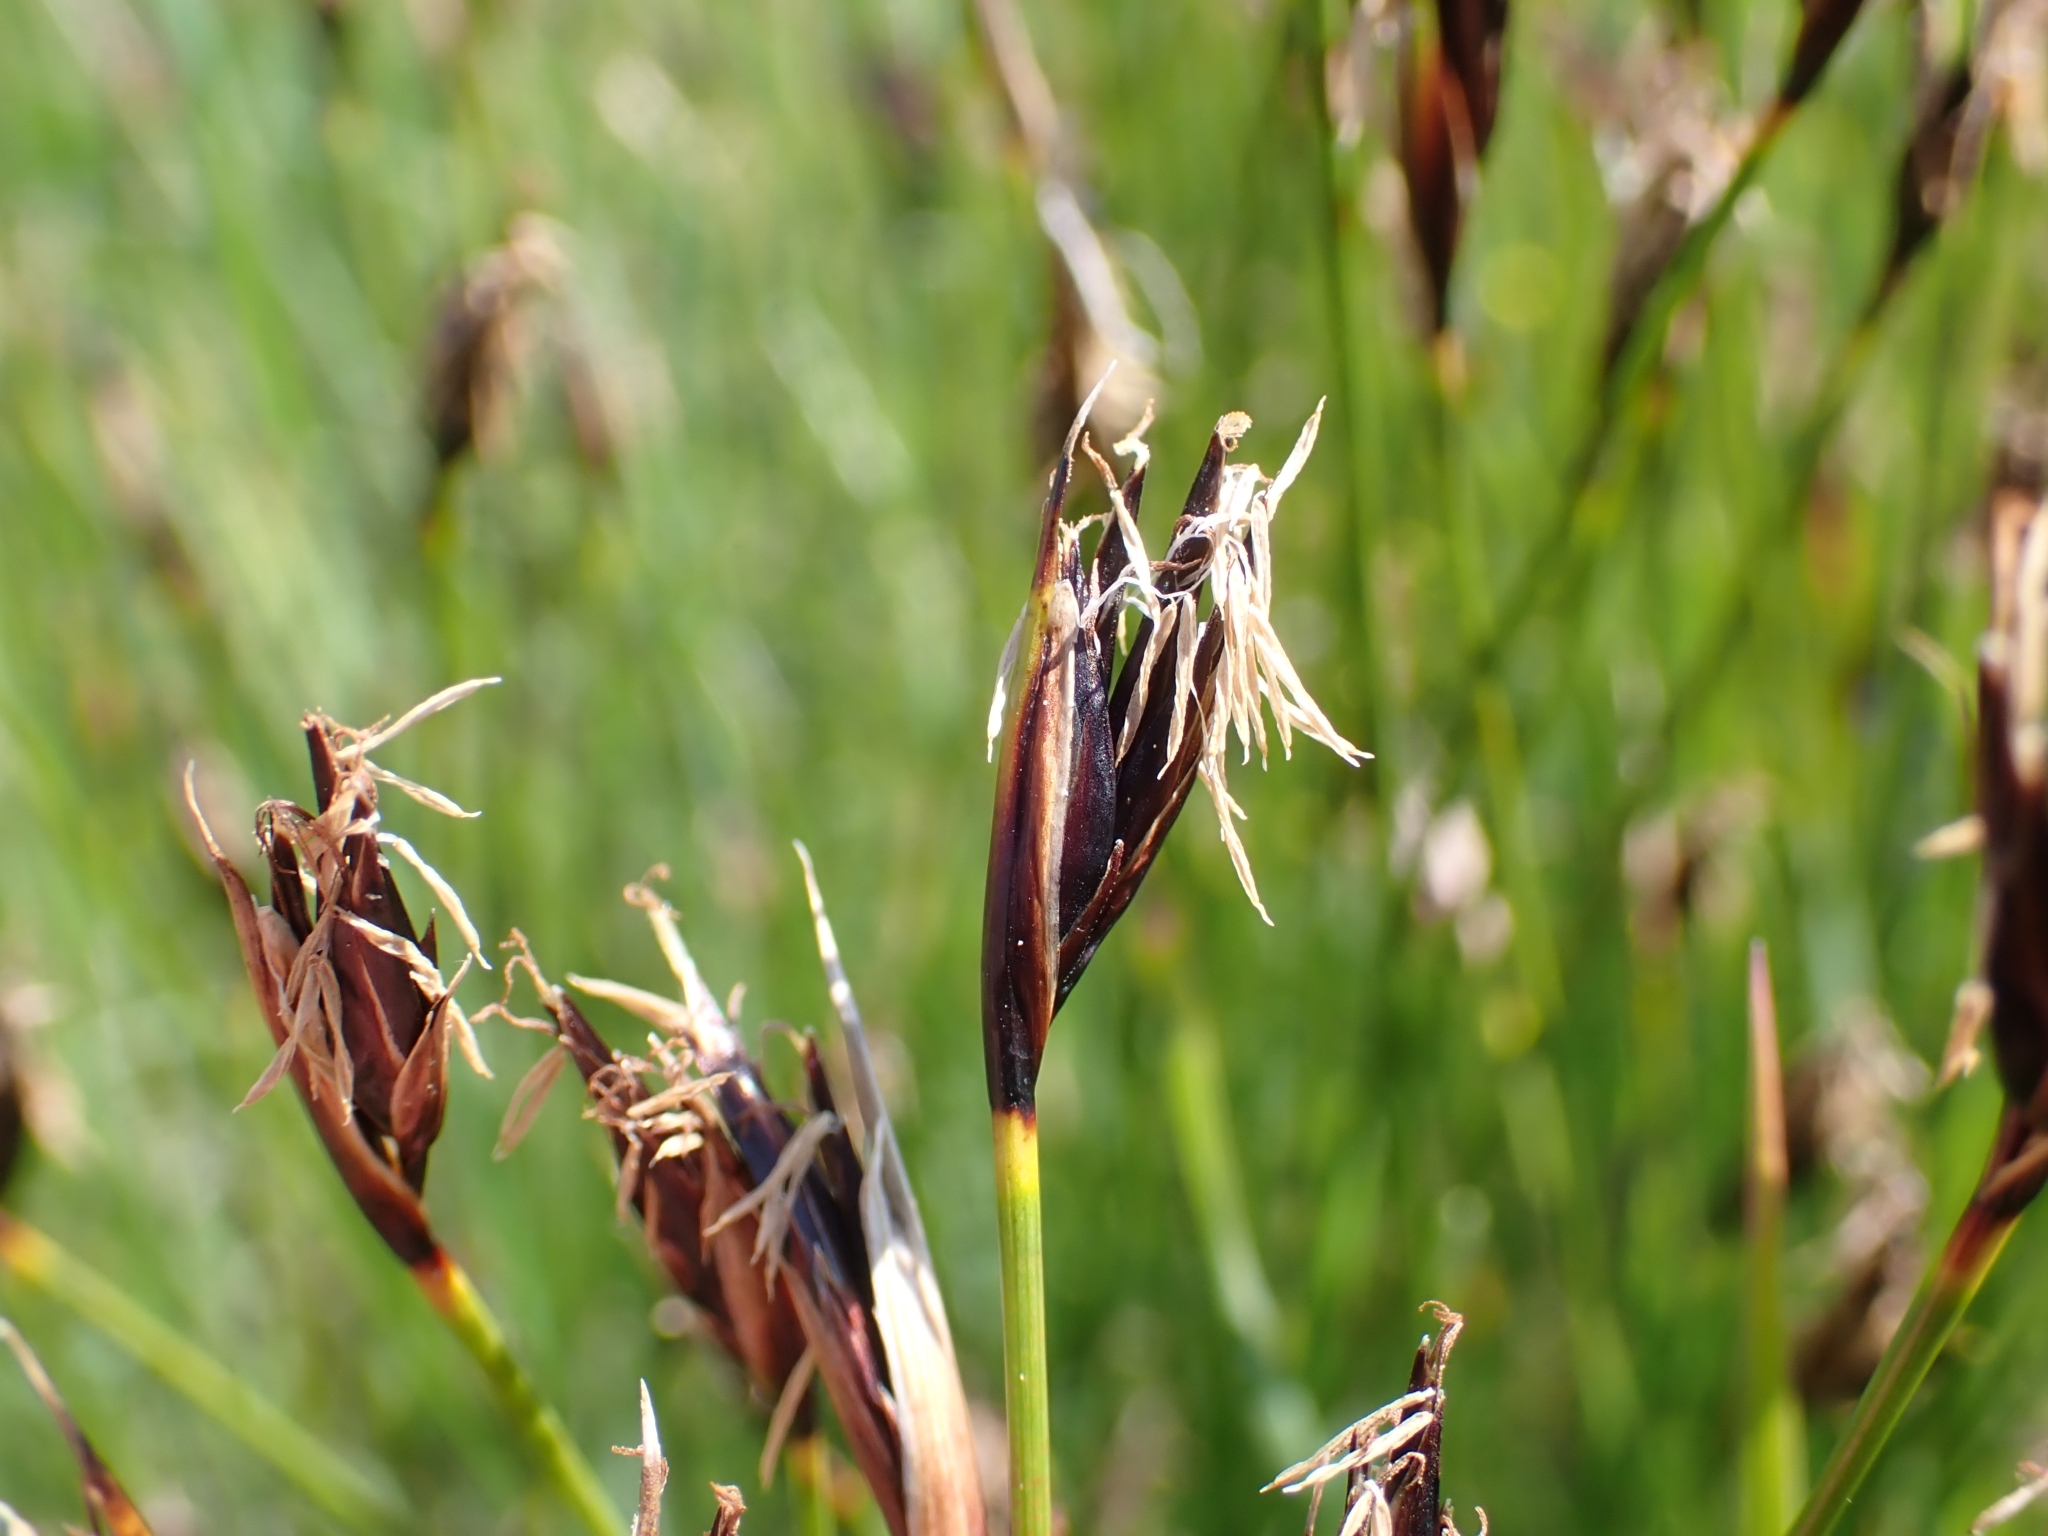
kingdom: Plantae
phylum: Tracheophyta
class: Liliopsida
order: Poales
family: Cyperaceae
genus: Schoenus
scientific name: Schoenus ferrugineus
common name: Brown bog-rush
